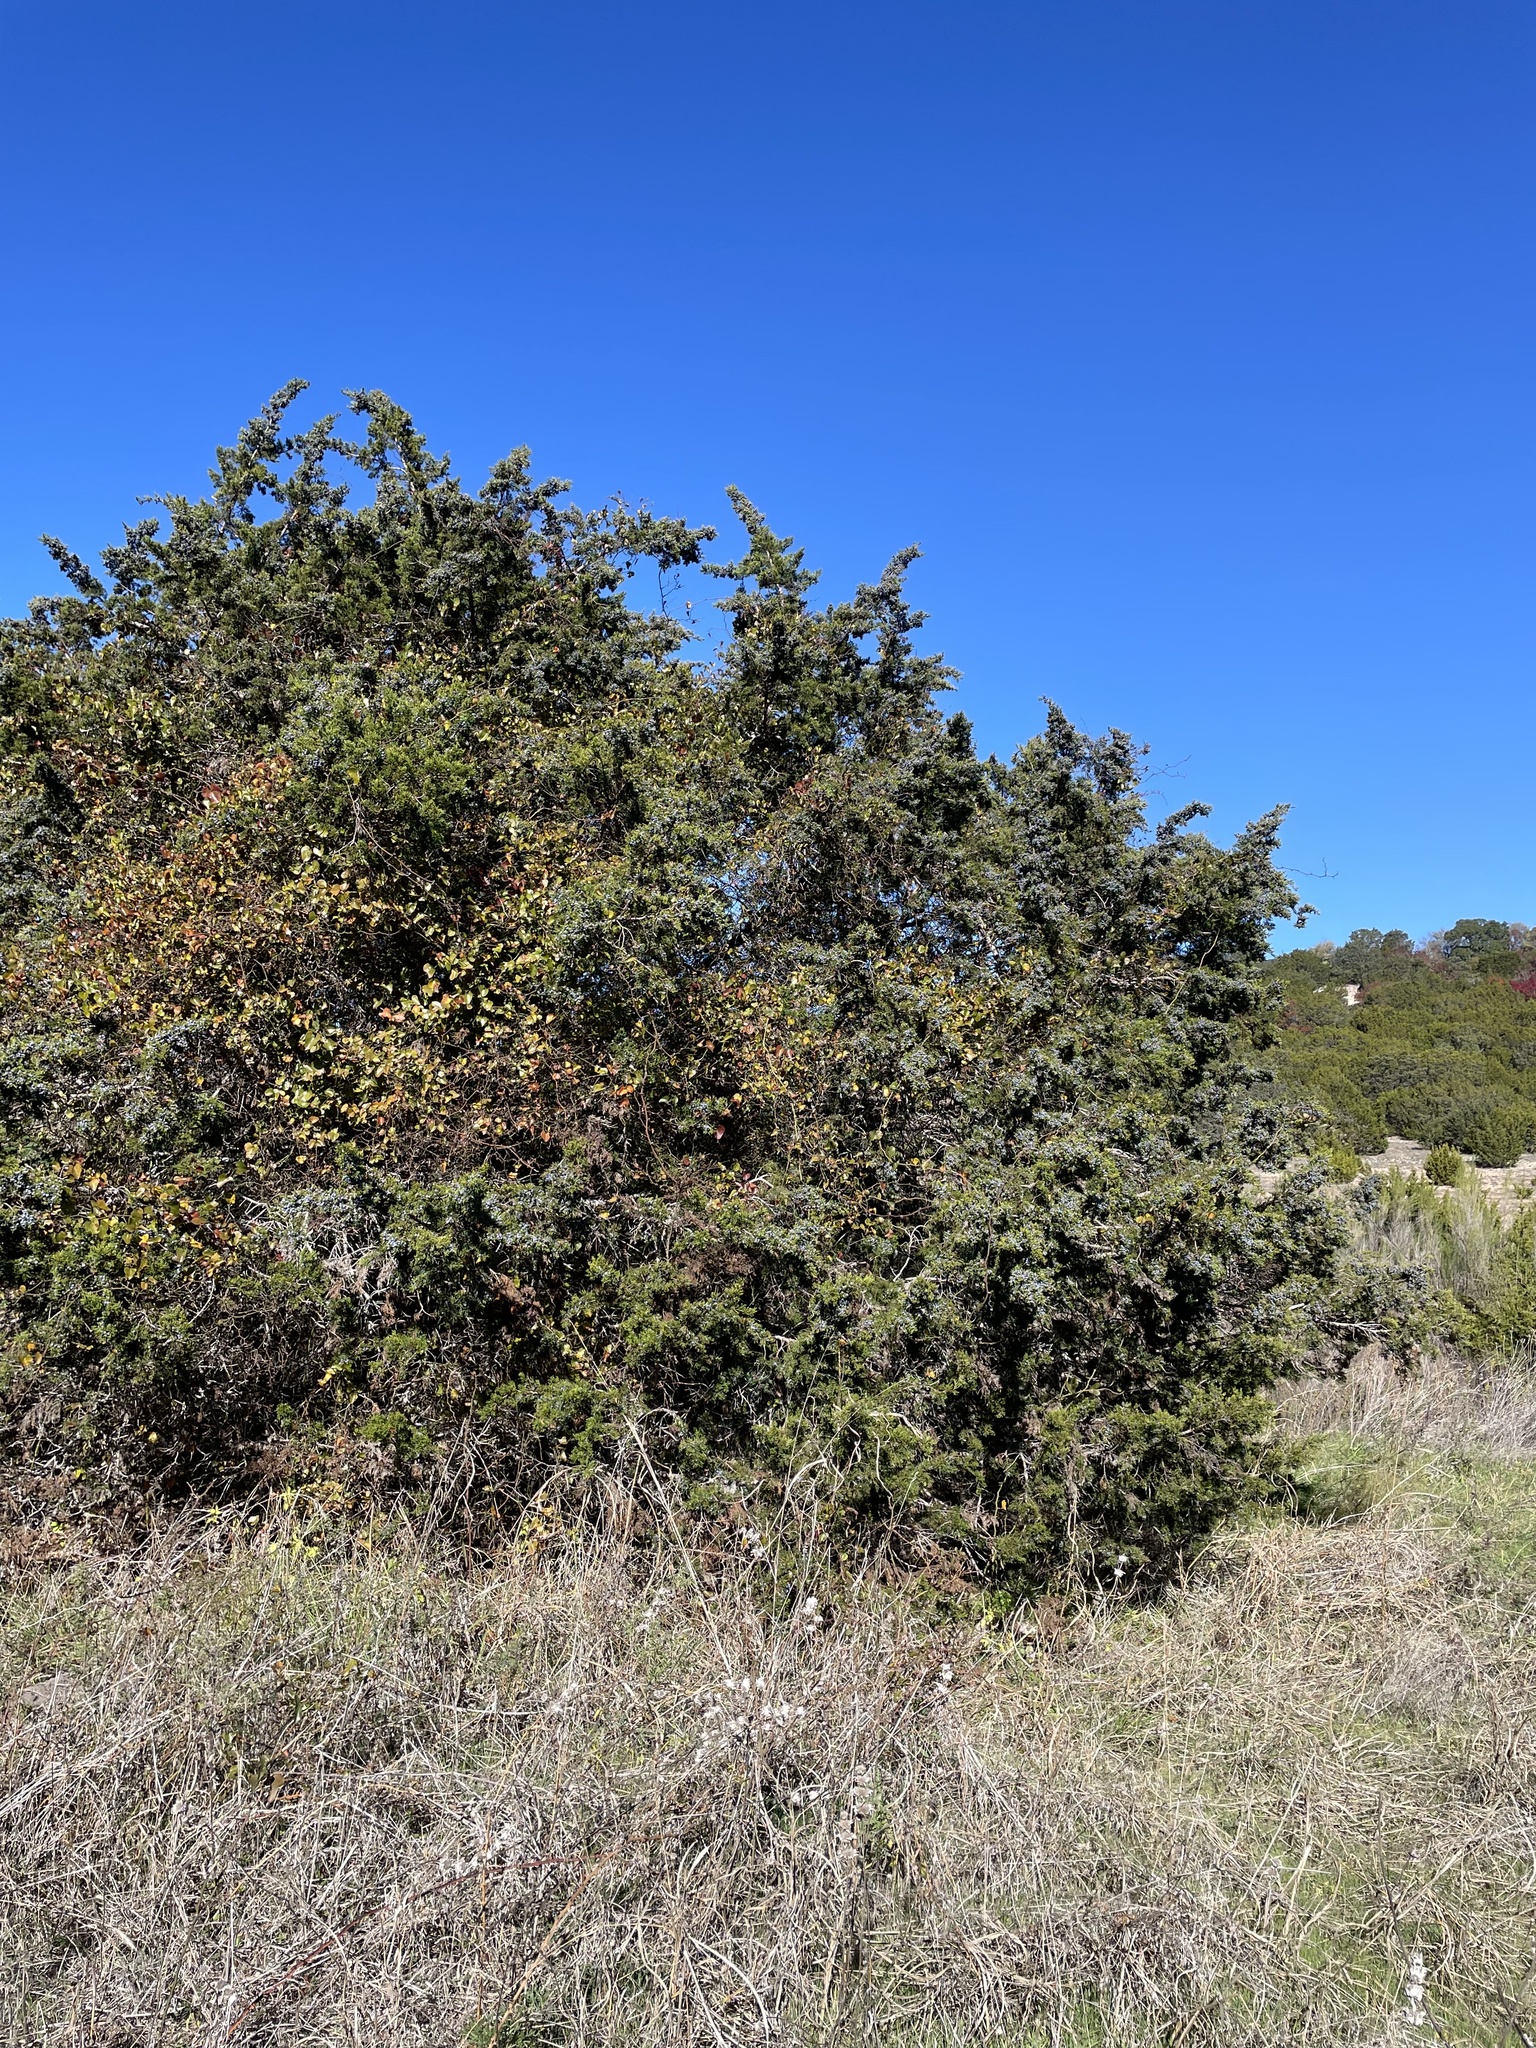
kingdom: Plantae
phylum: Tracheophyta
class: Pinopsida
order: Pinales
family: Cupressaceae
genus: Juniperus
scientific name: Juniperus ashei
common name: Mexican juniper
